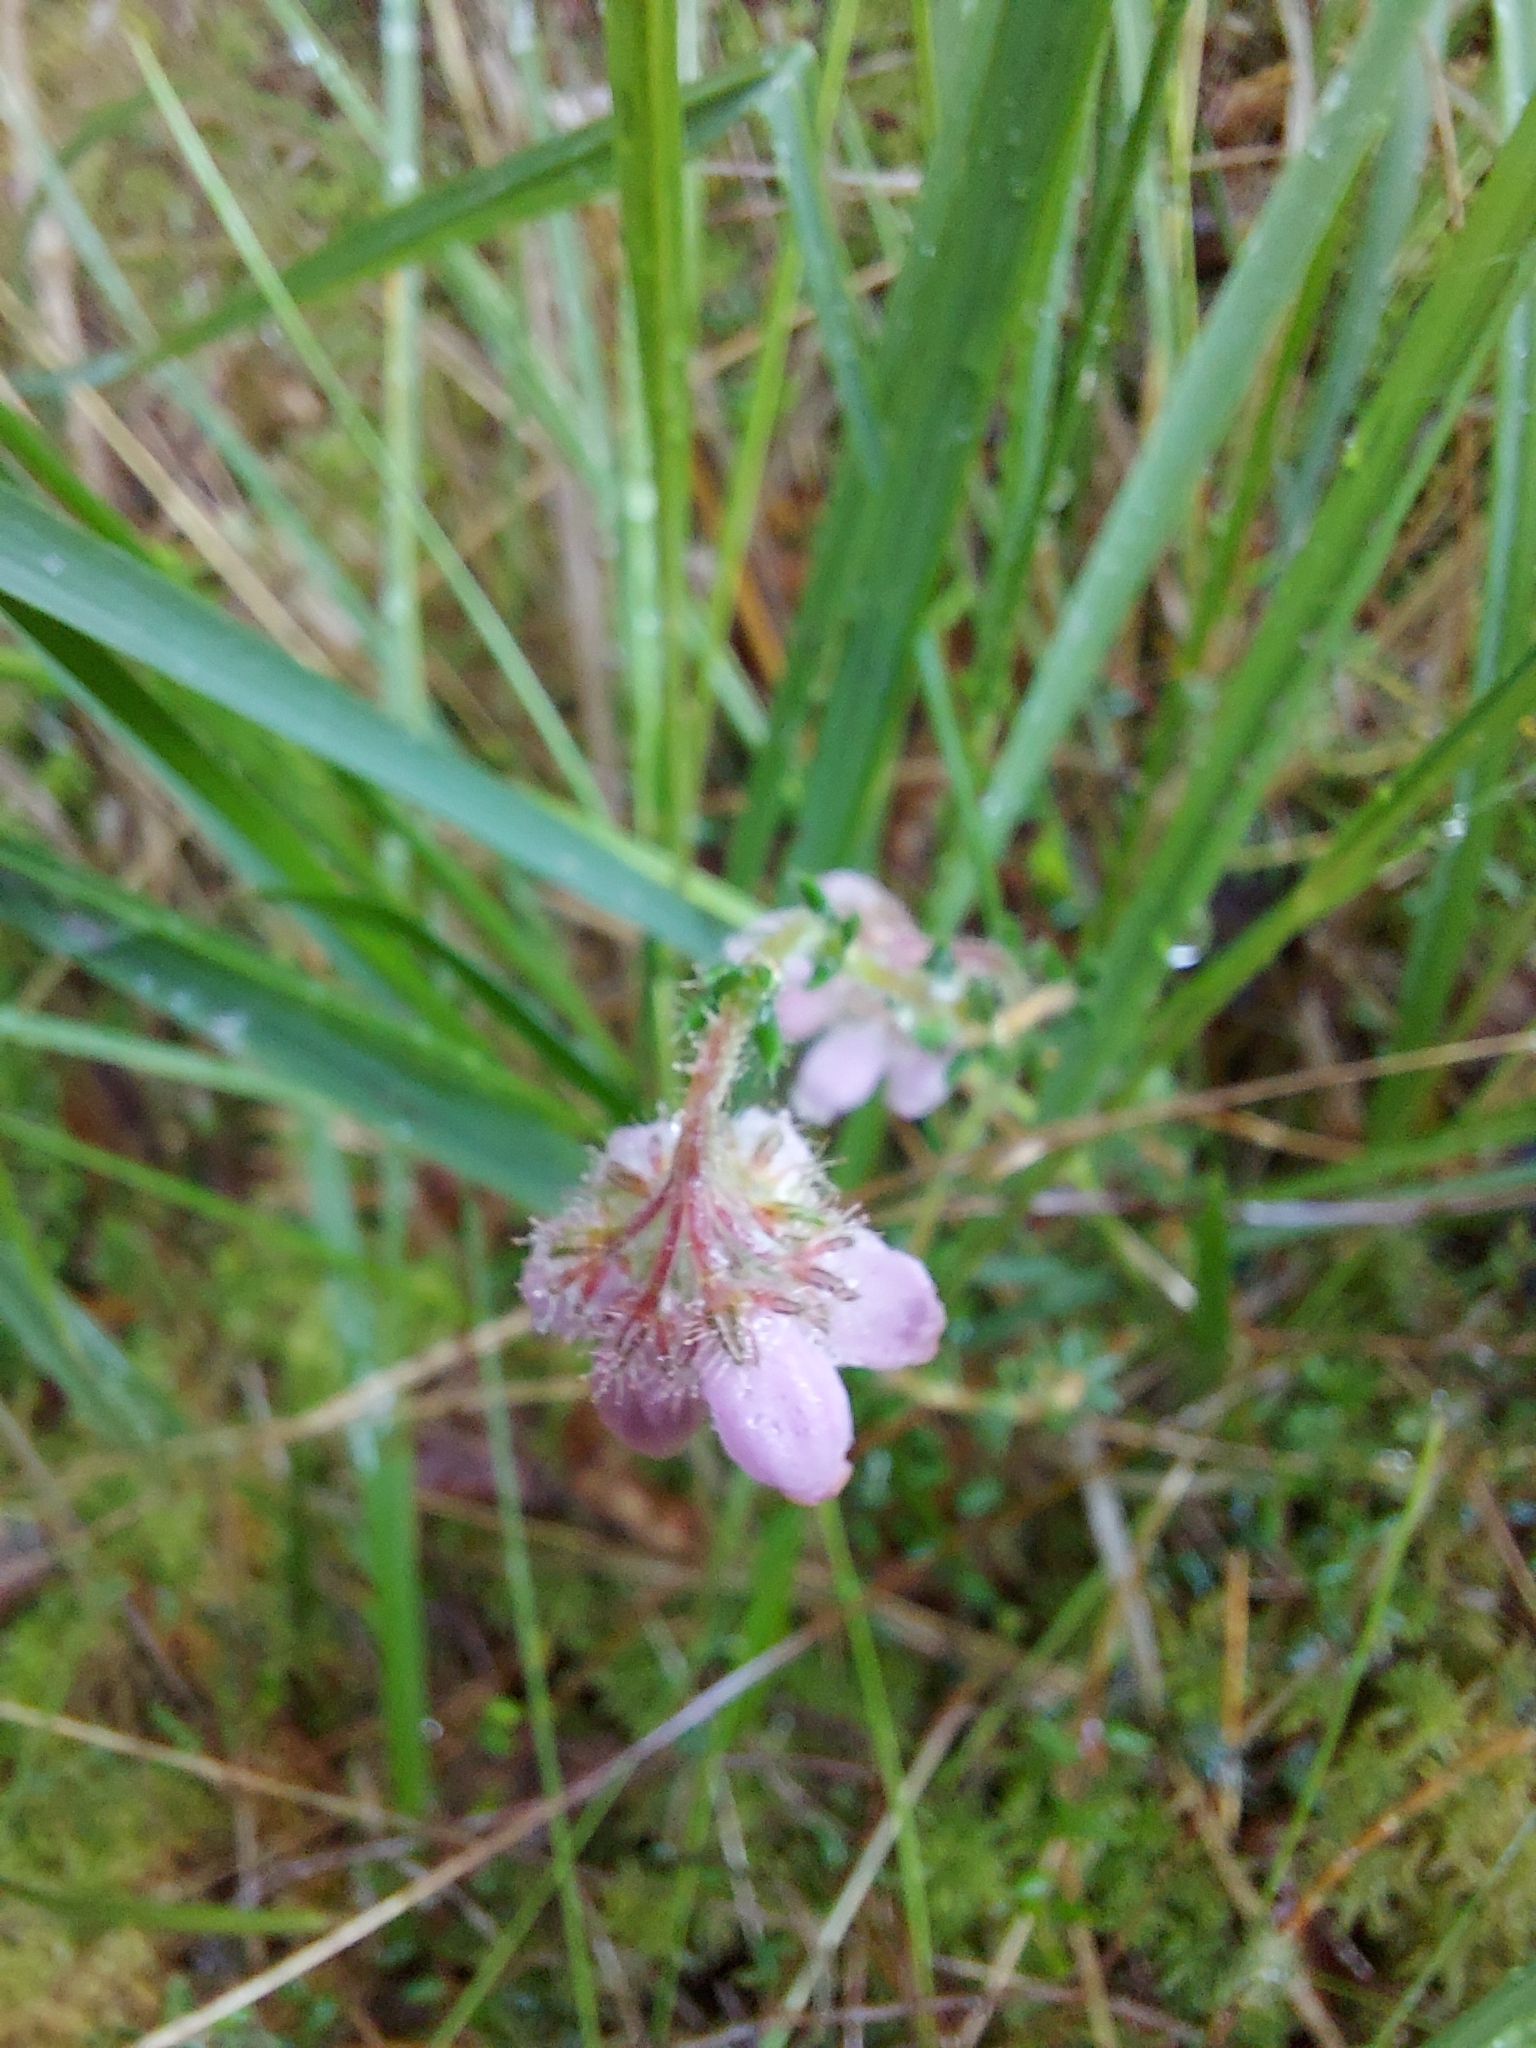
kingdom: Plantae
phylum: Tracheophyta
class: Magnoliopsida
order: Ericales
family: Ericaceae
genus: Erica
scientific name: Erica tetralix
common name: Cross-leaved heath
